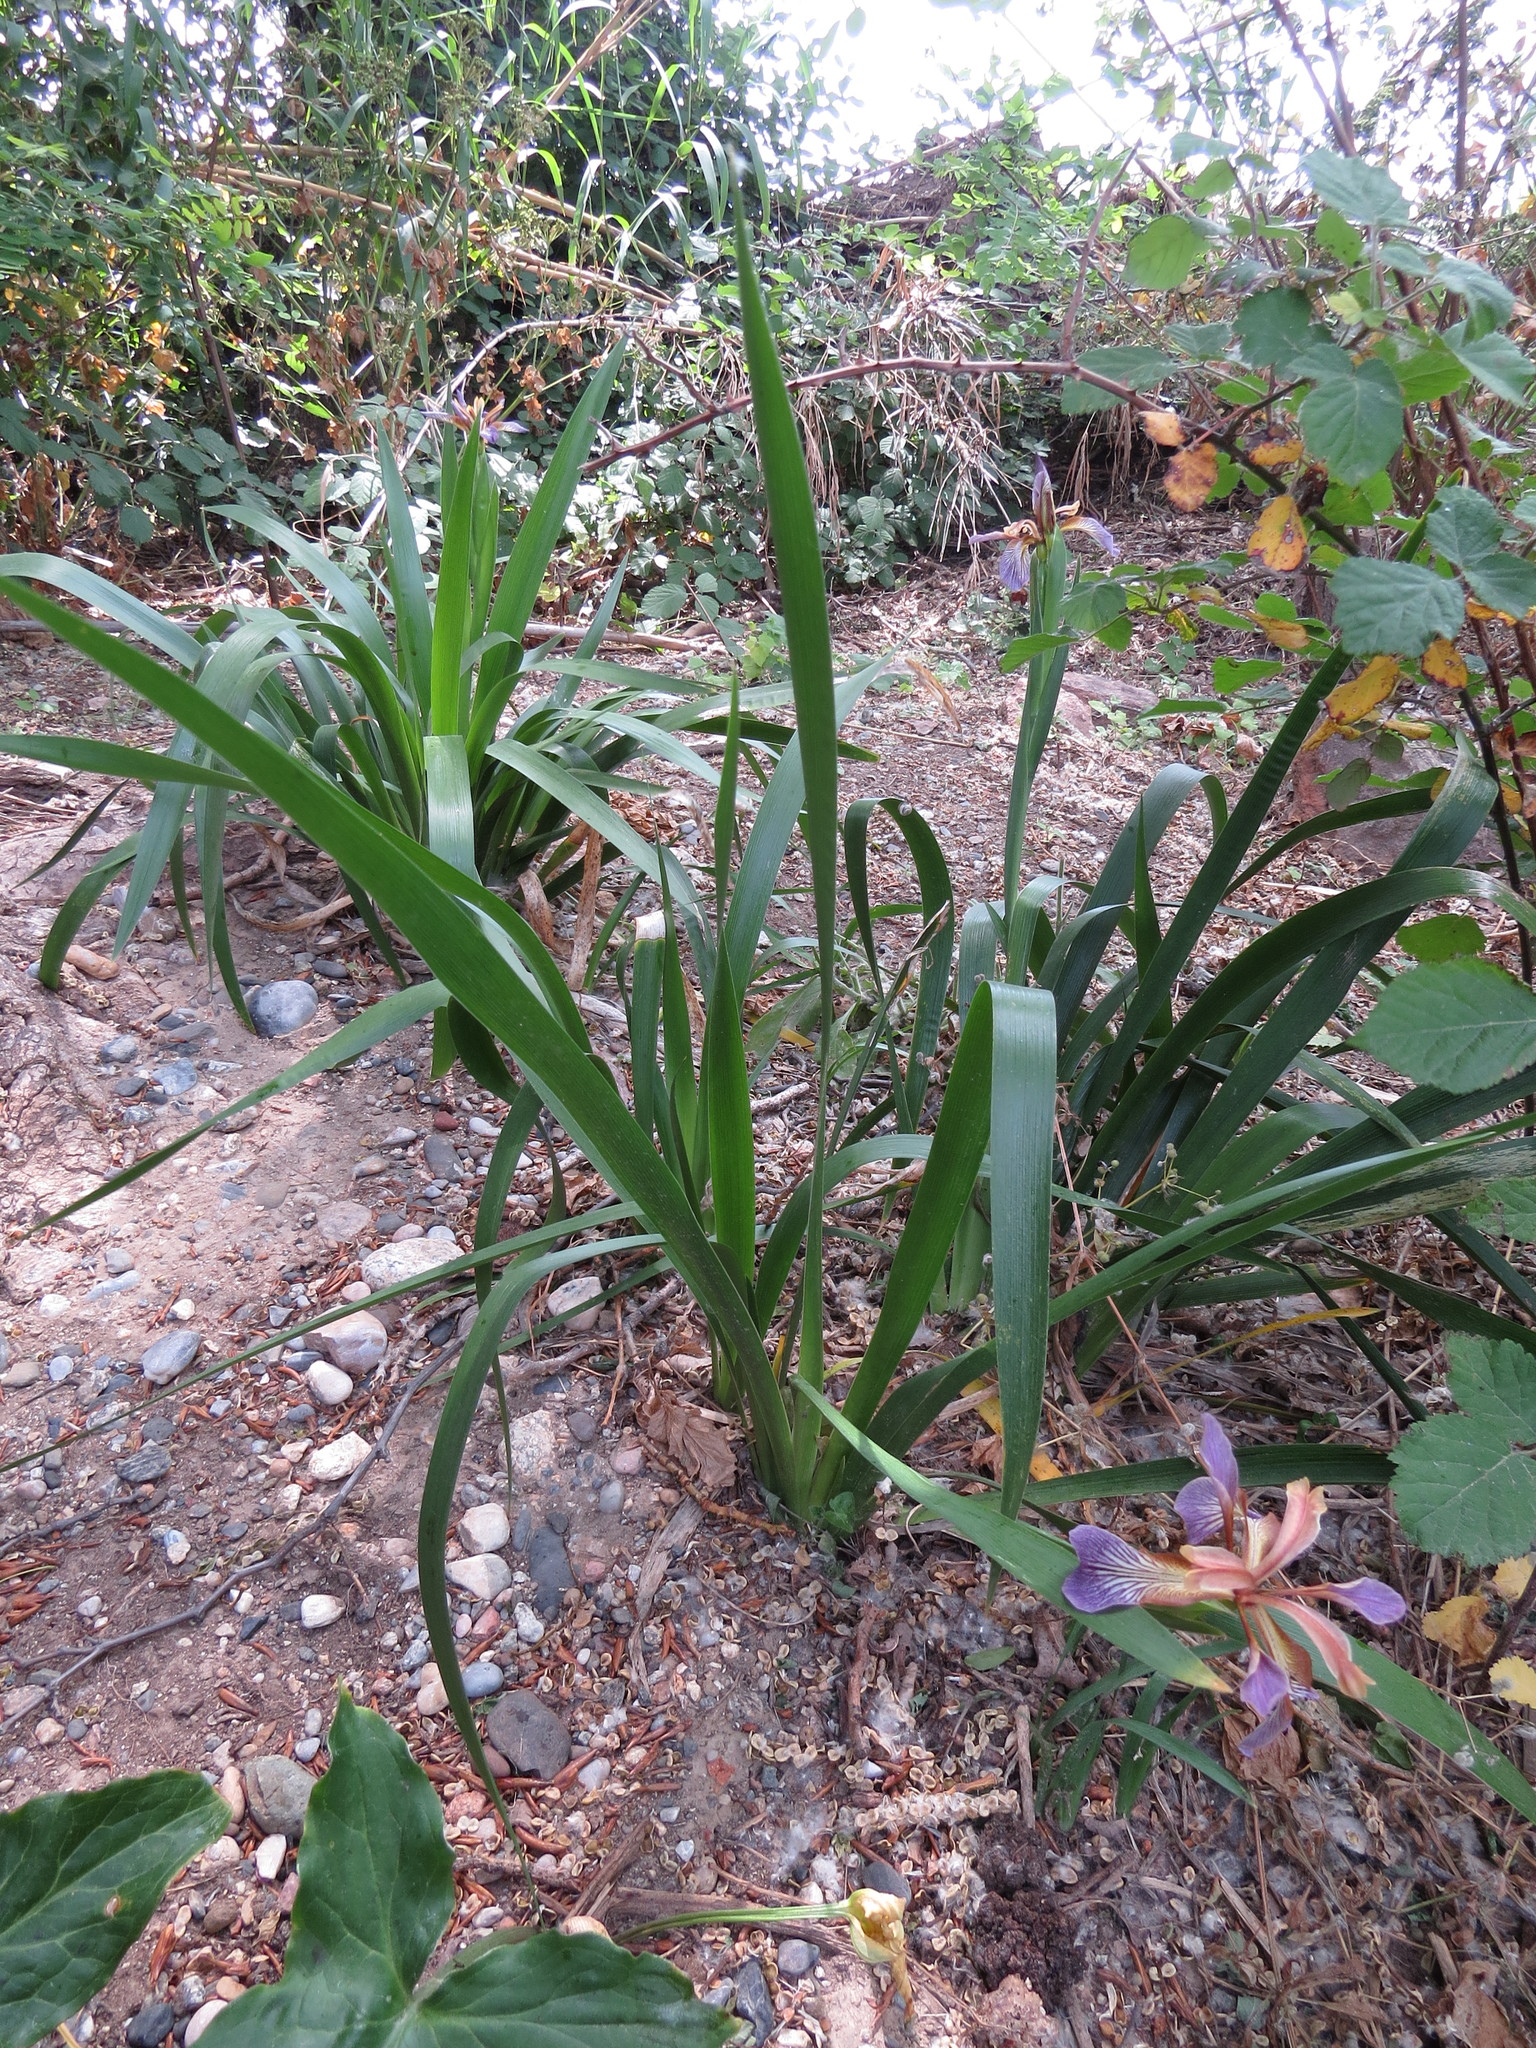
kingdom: Plantae
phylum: Tracheophyta
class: Liliopsida
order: Asparagales
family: Iridaceae
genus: Iris
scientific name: Iris foetidissima
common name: Stinking iris
